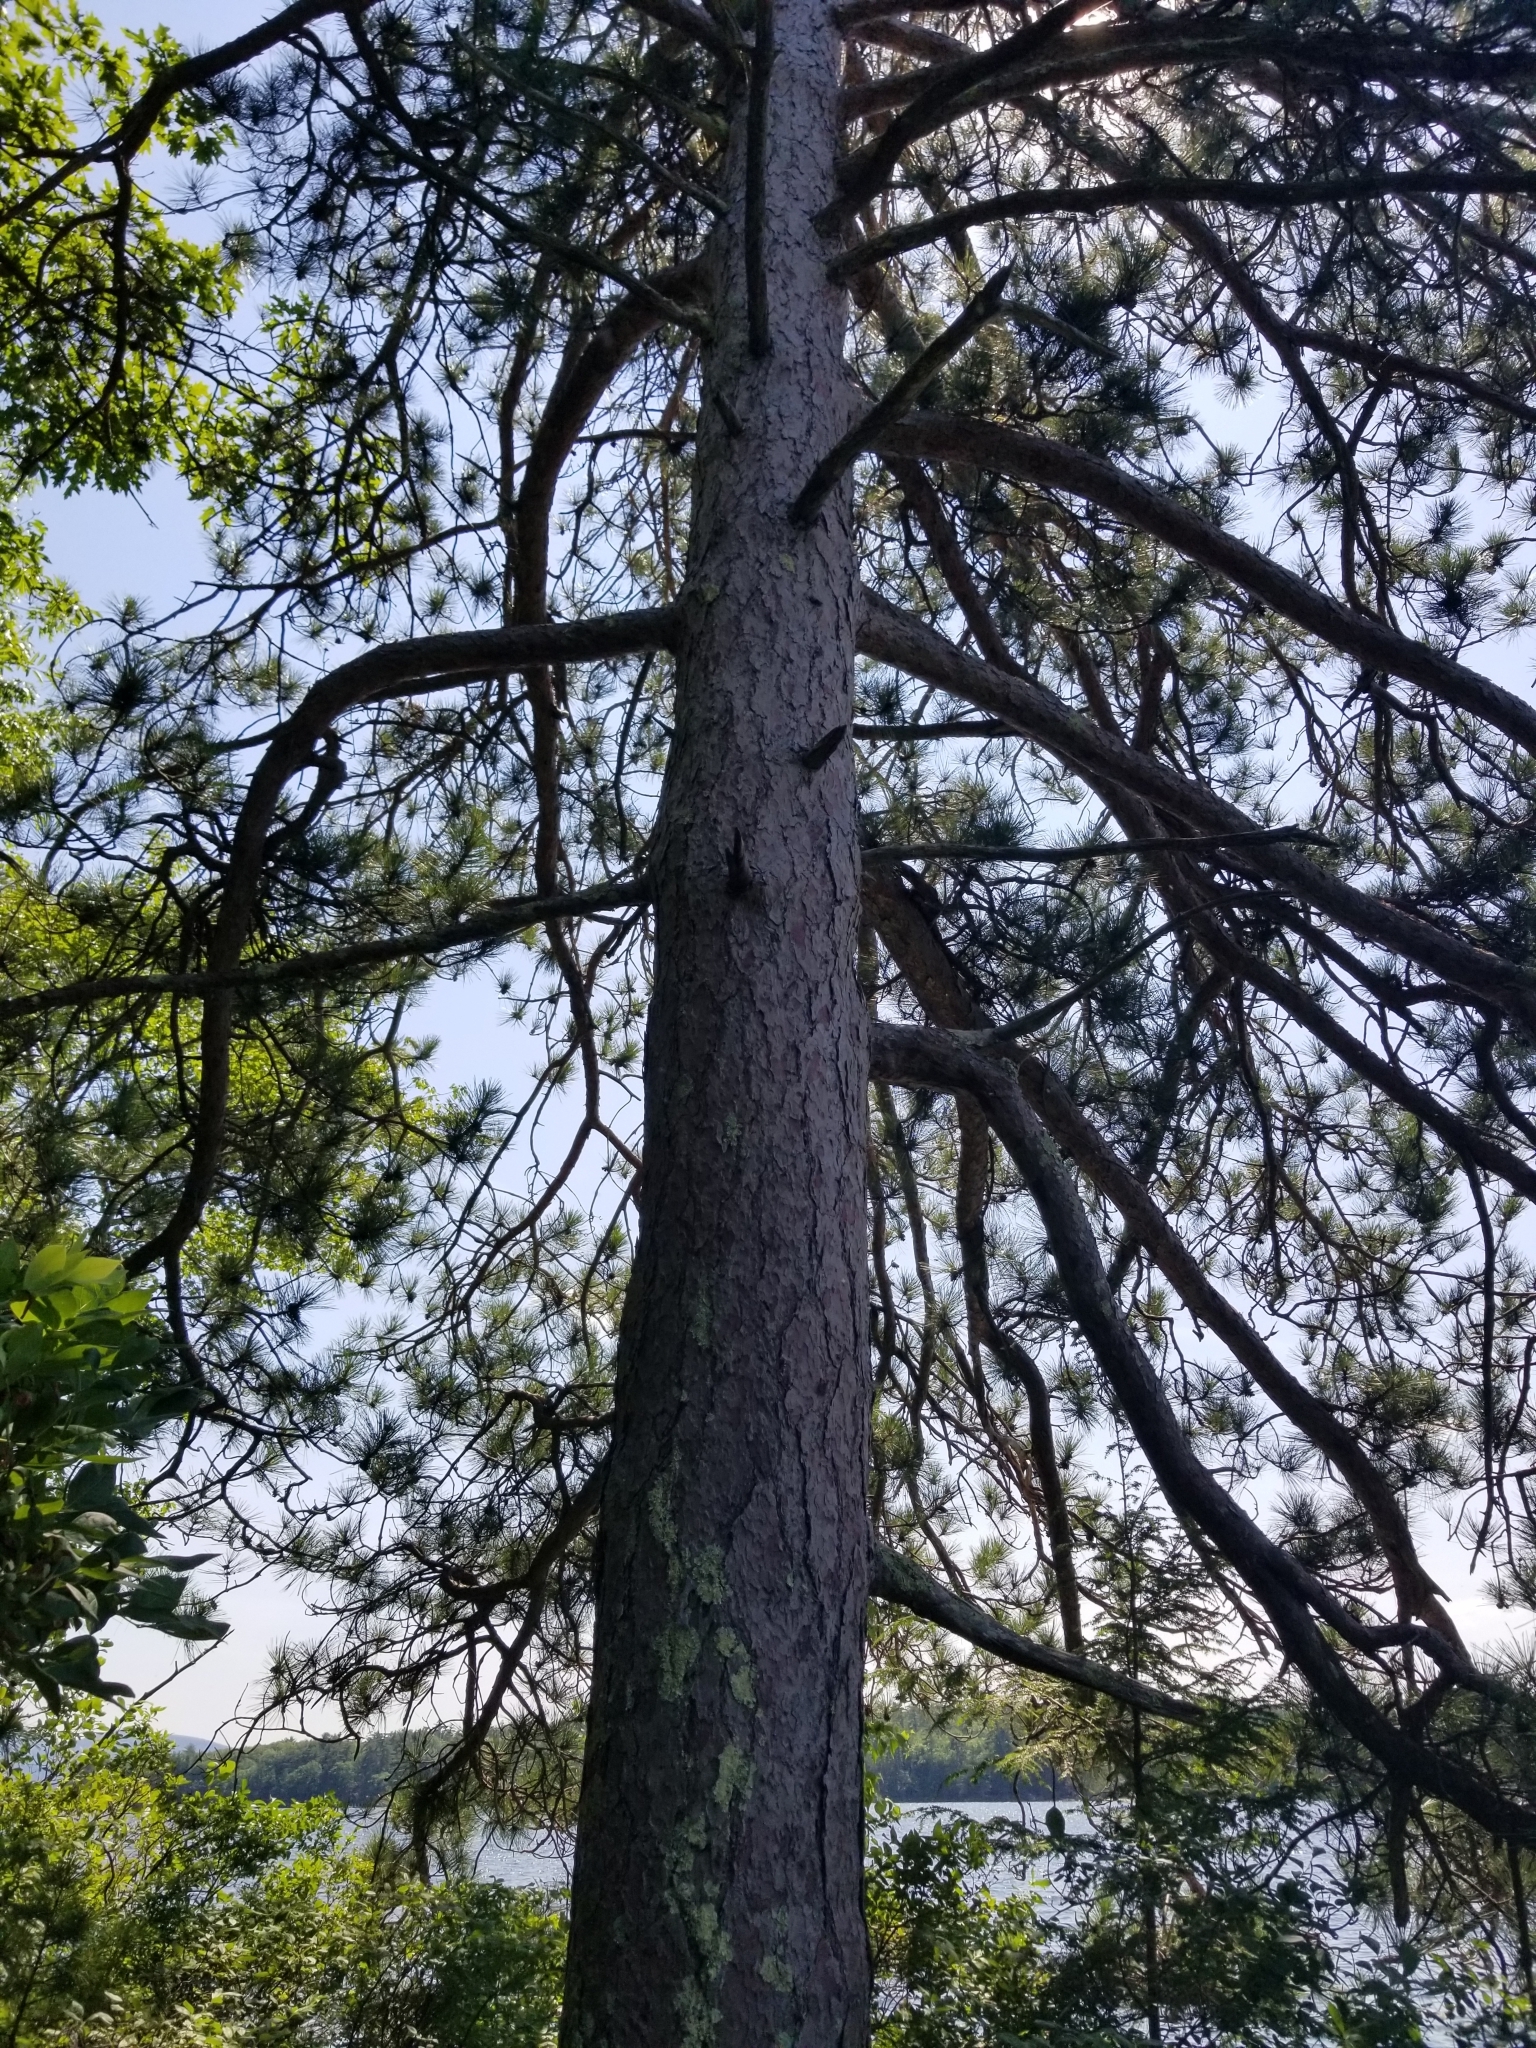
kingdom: Plantae
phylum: Tracheophyta
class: Pinopsida
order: Pinales
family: Pinaceae
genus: Pinus
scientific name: Pinus resinosa
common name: Norway pine
